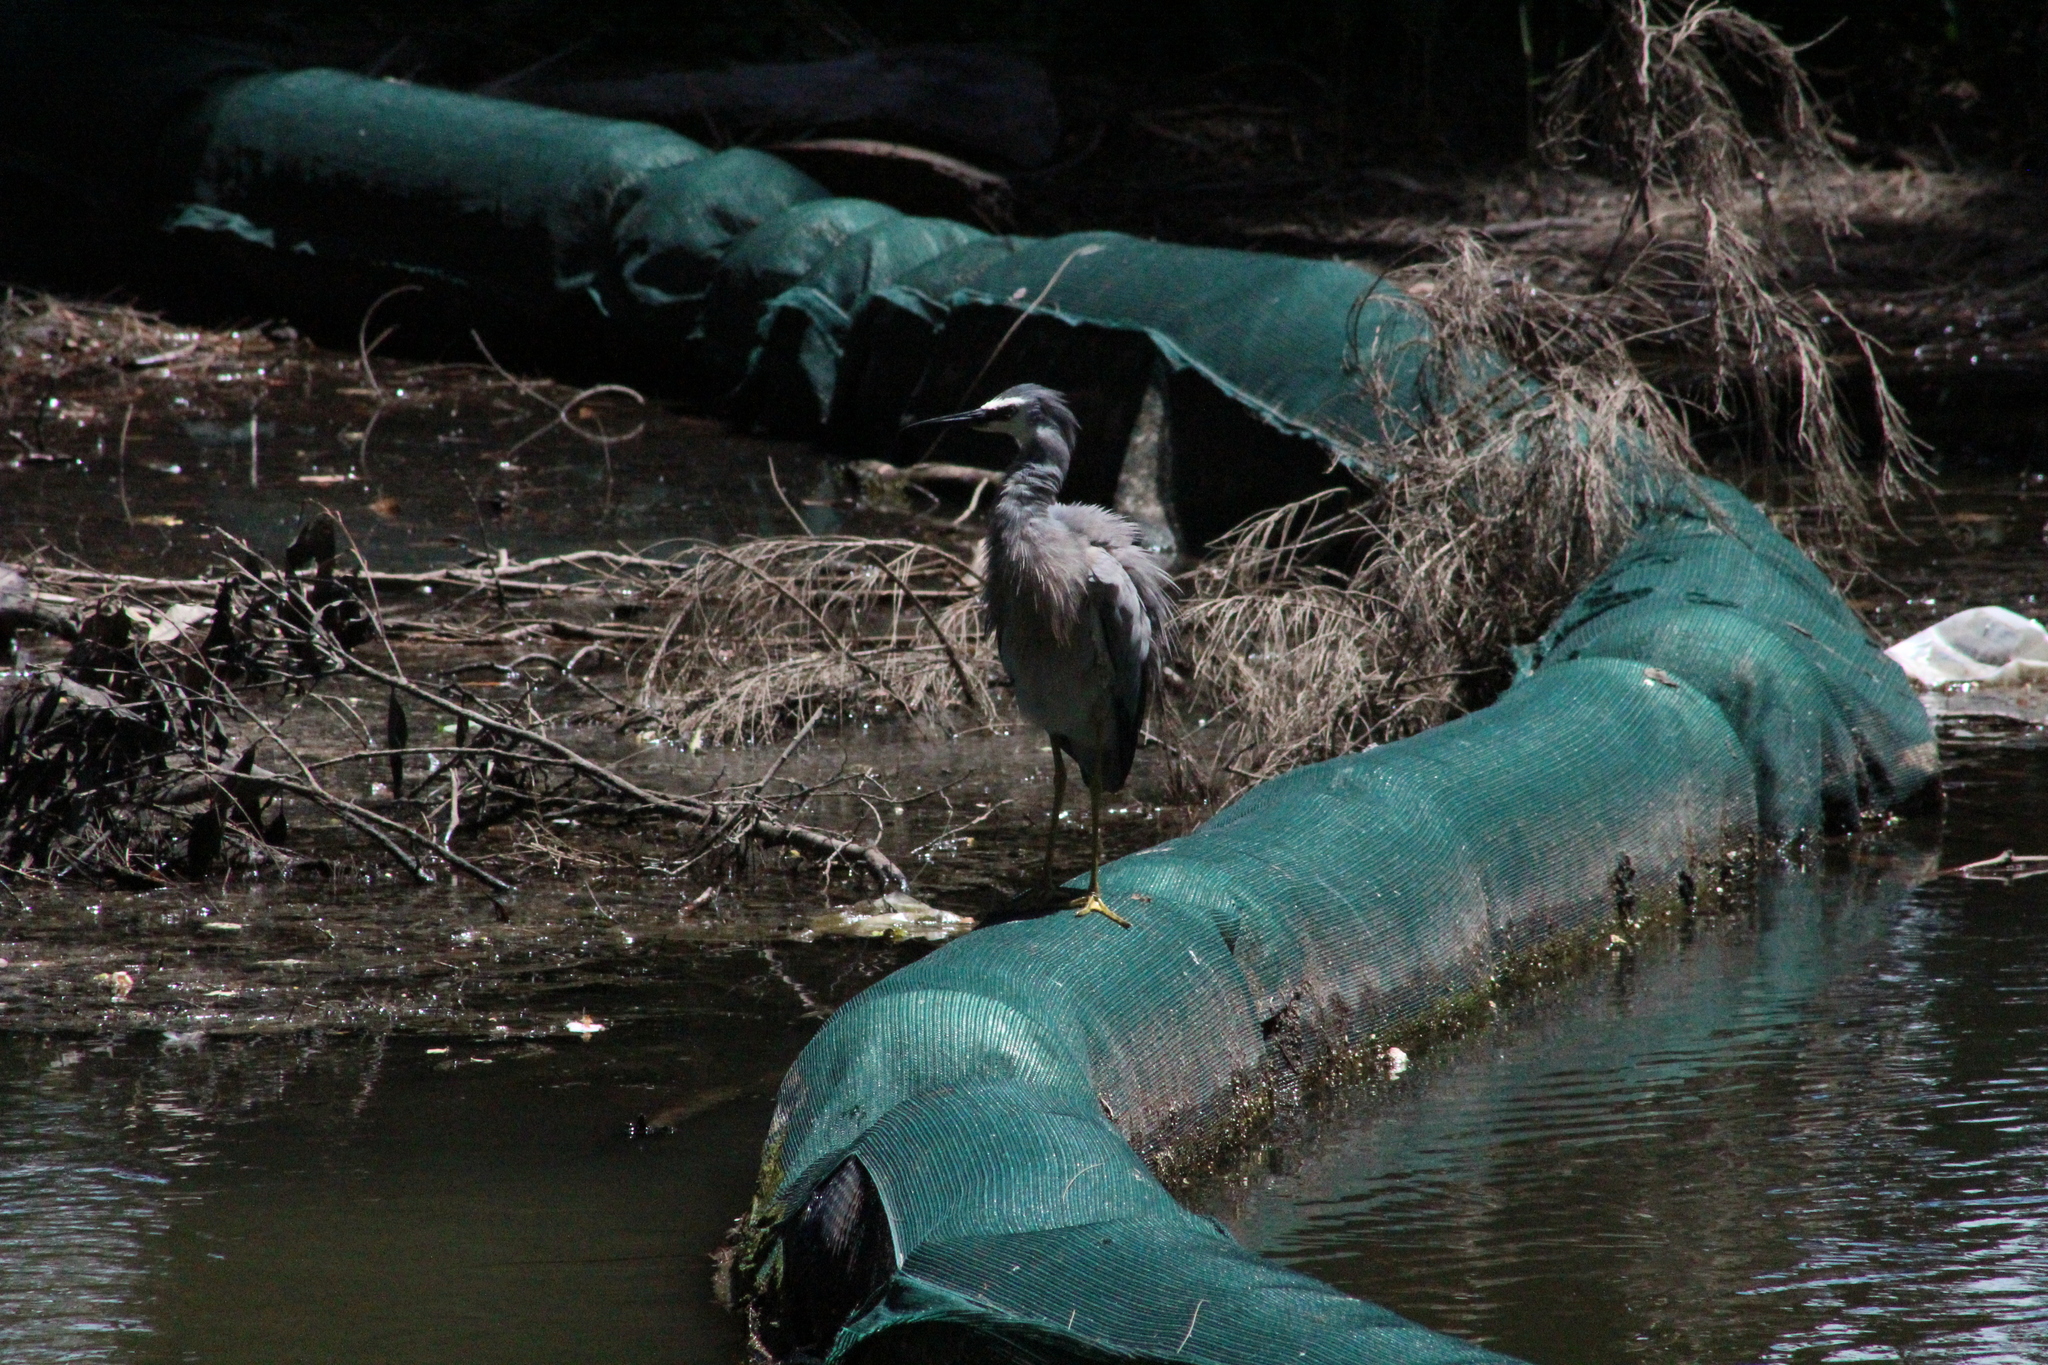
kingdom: Animalia
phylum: Chordata
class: Aves
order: Pelecaniformes
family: Ardeidae
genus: Egretta
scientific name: Egretta novaehollandiae
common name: White-faced heron
